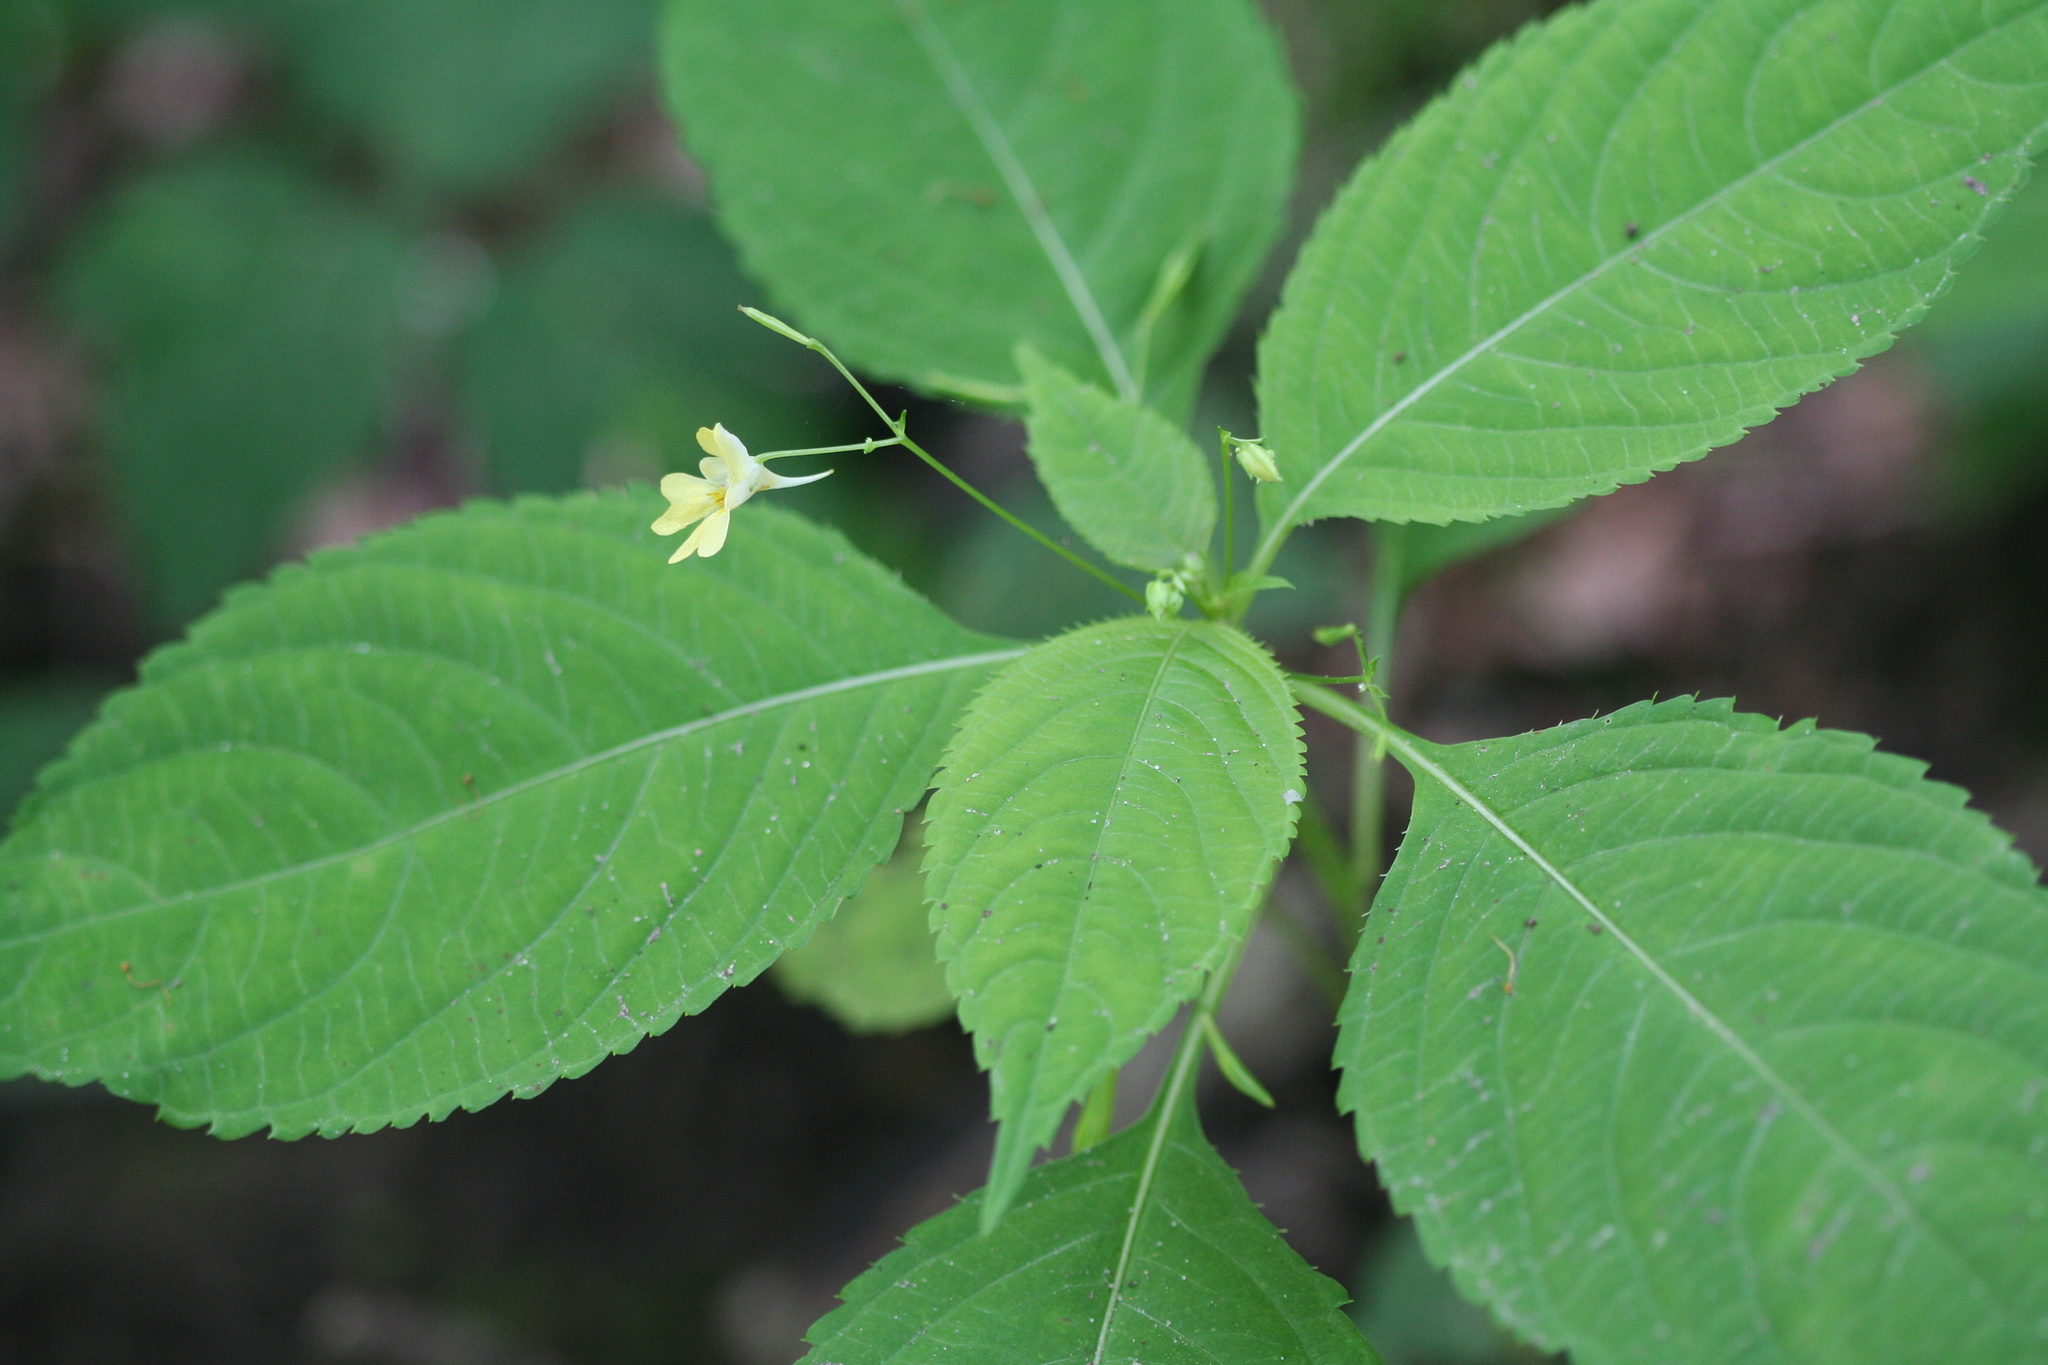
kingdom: Plantae
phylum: Tracheophyta
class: Magnoliopsida
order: Ericales
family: Balsaminaceae
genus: Impatiens
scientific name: Impatiens parviflora
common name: Small balsam
